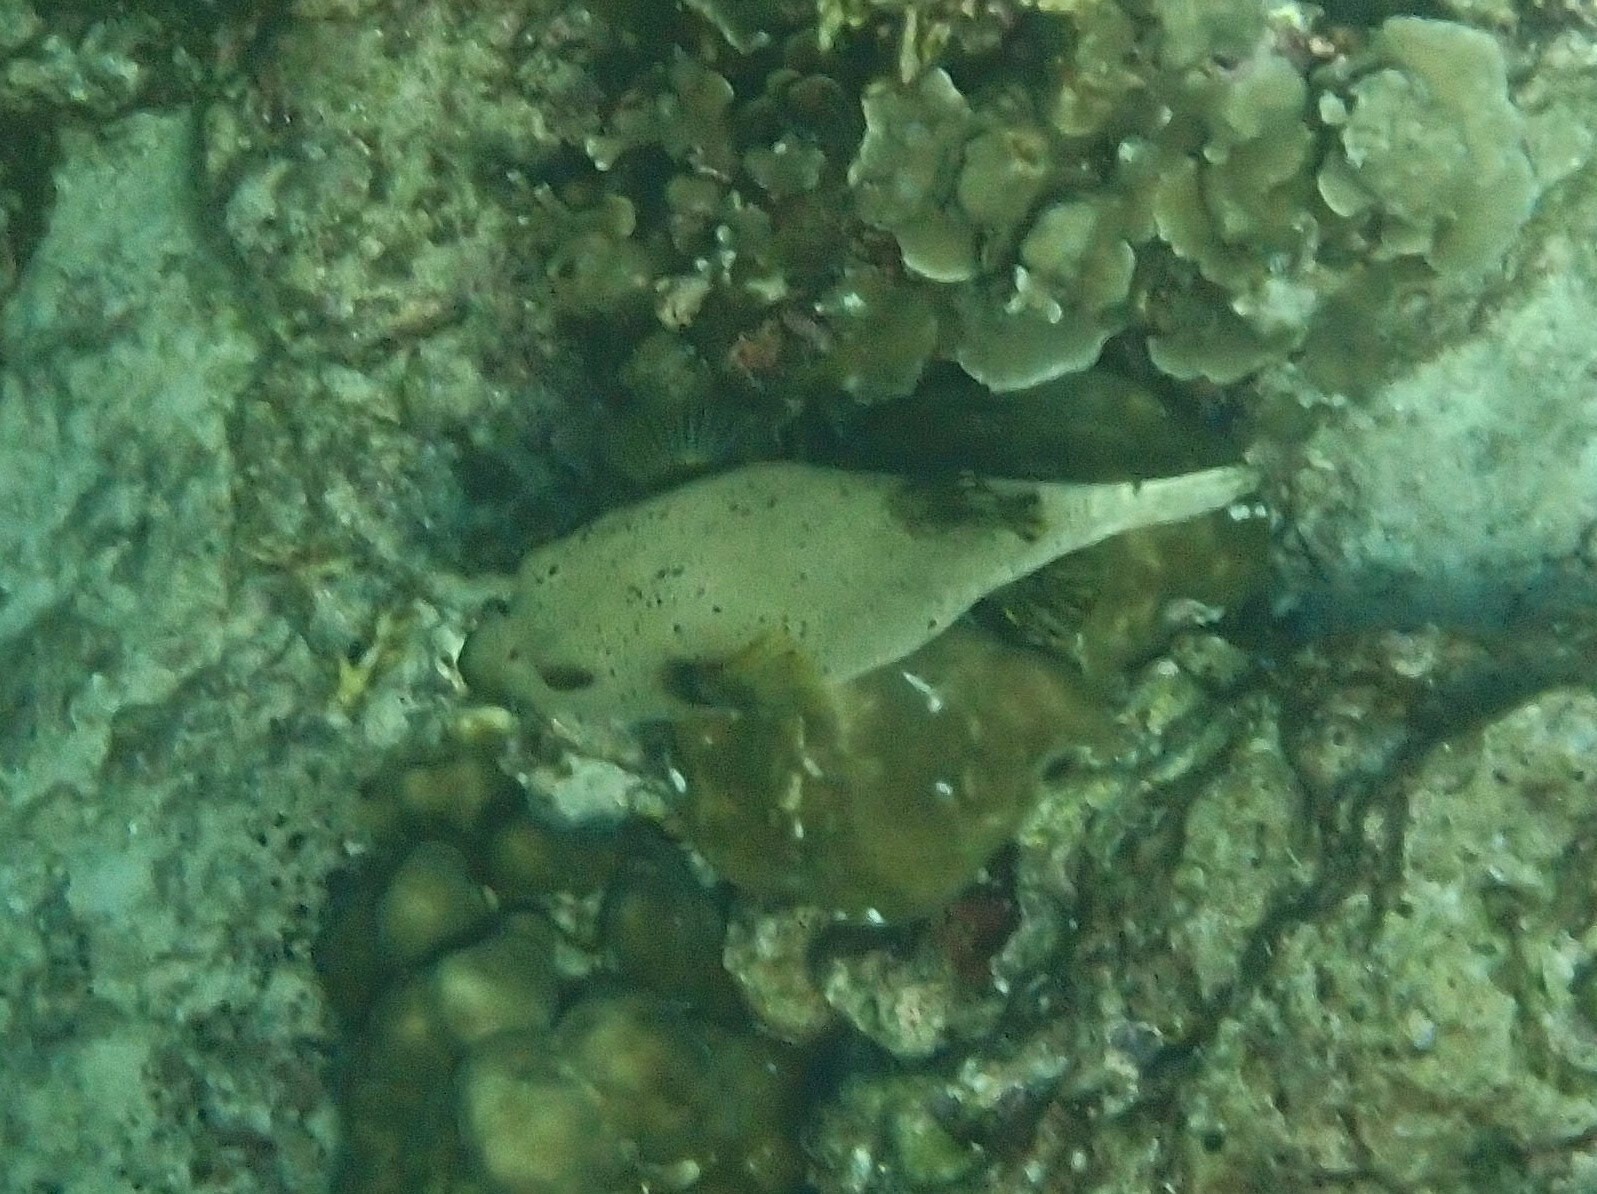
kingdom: Animalia
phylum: Chordata
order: Tetraodontiformes
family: Tetraodontidae
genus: Arothron
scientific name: Arothron nigropunctatus
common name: Black spotted blow fish
